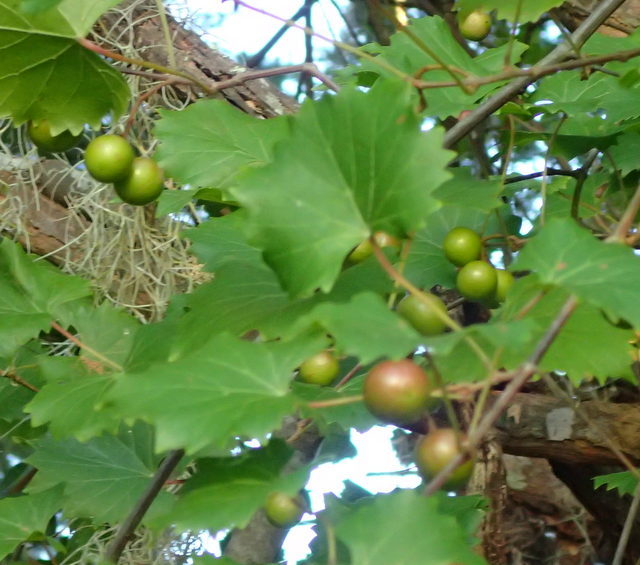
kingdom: Plantae
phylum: Tracheophyta
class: Magnoliopsida
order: Vitales
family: Vitaceae
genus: Vitis
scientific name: Vitis rotundifolia
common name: Muscadine grape
